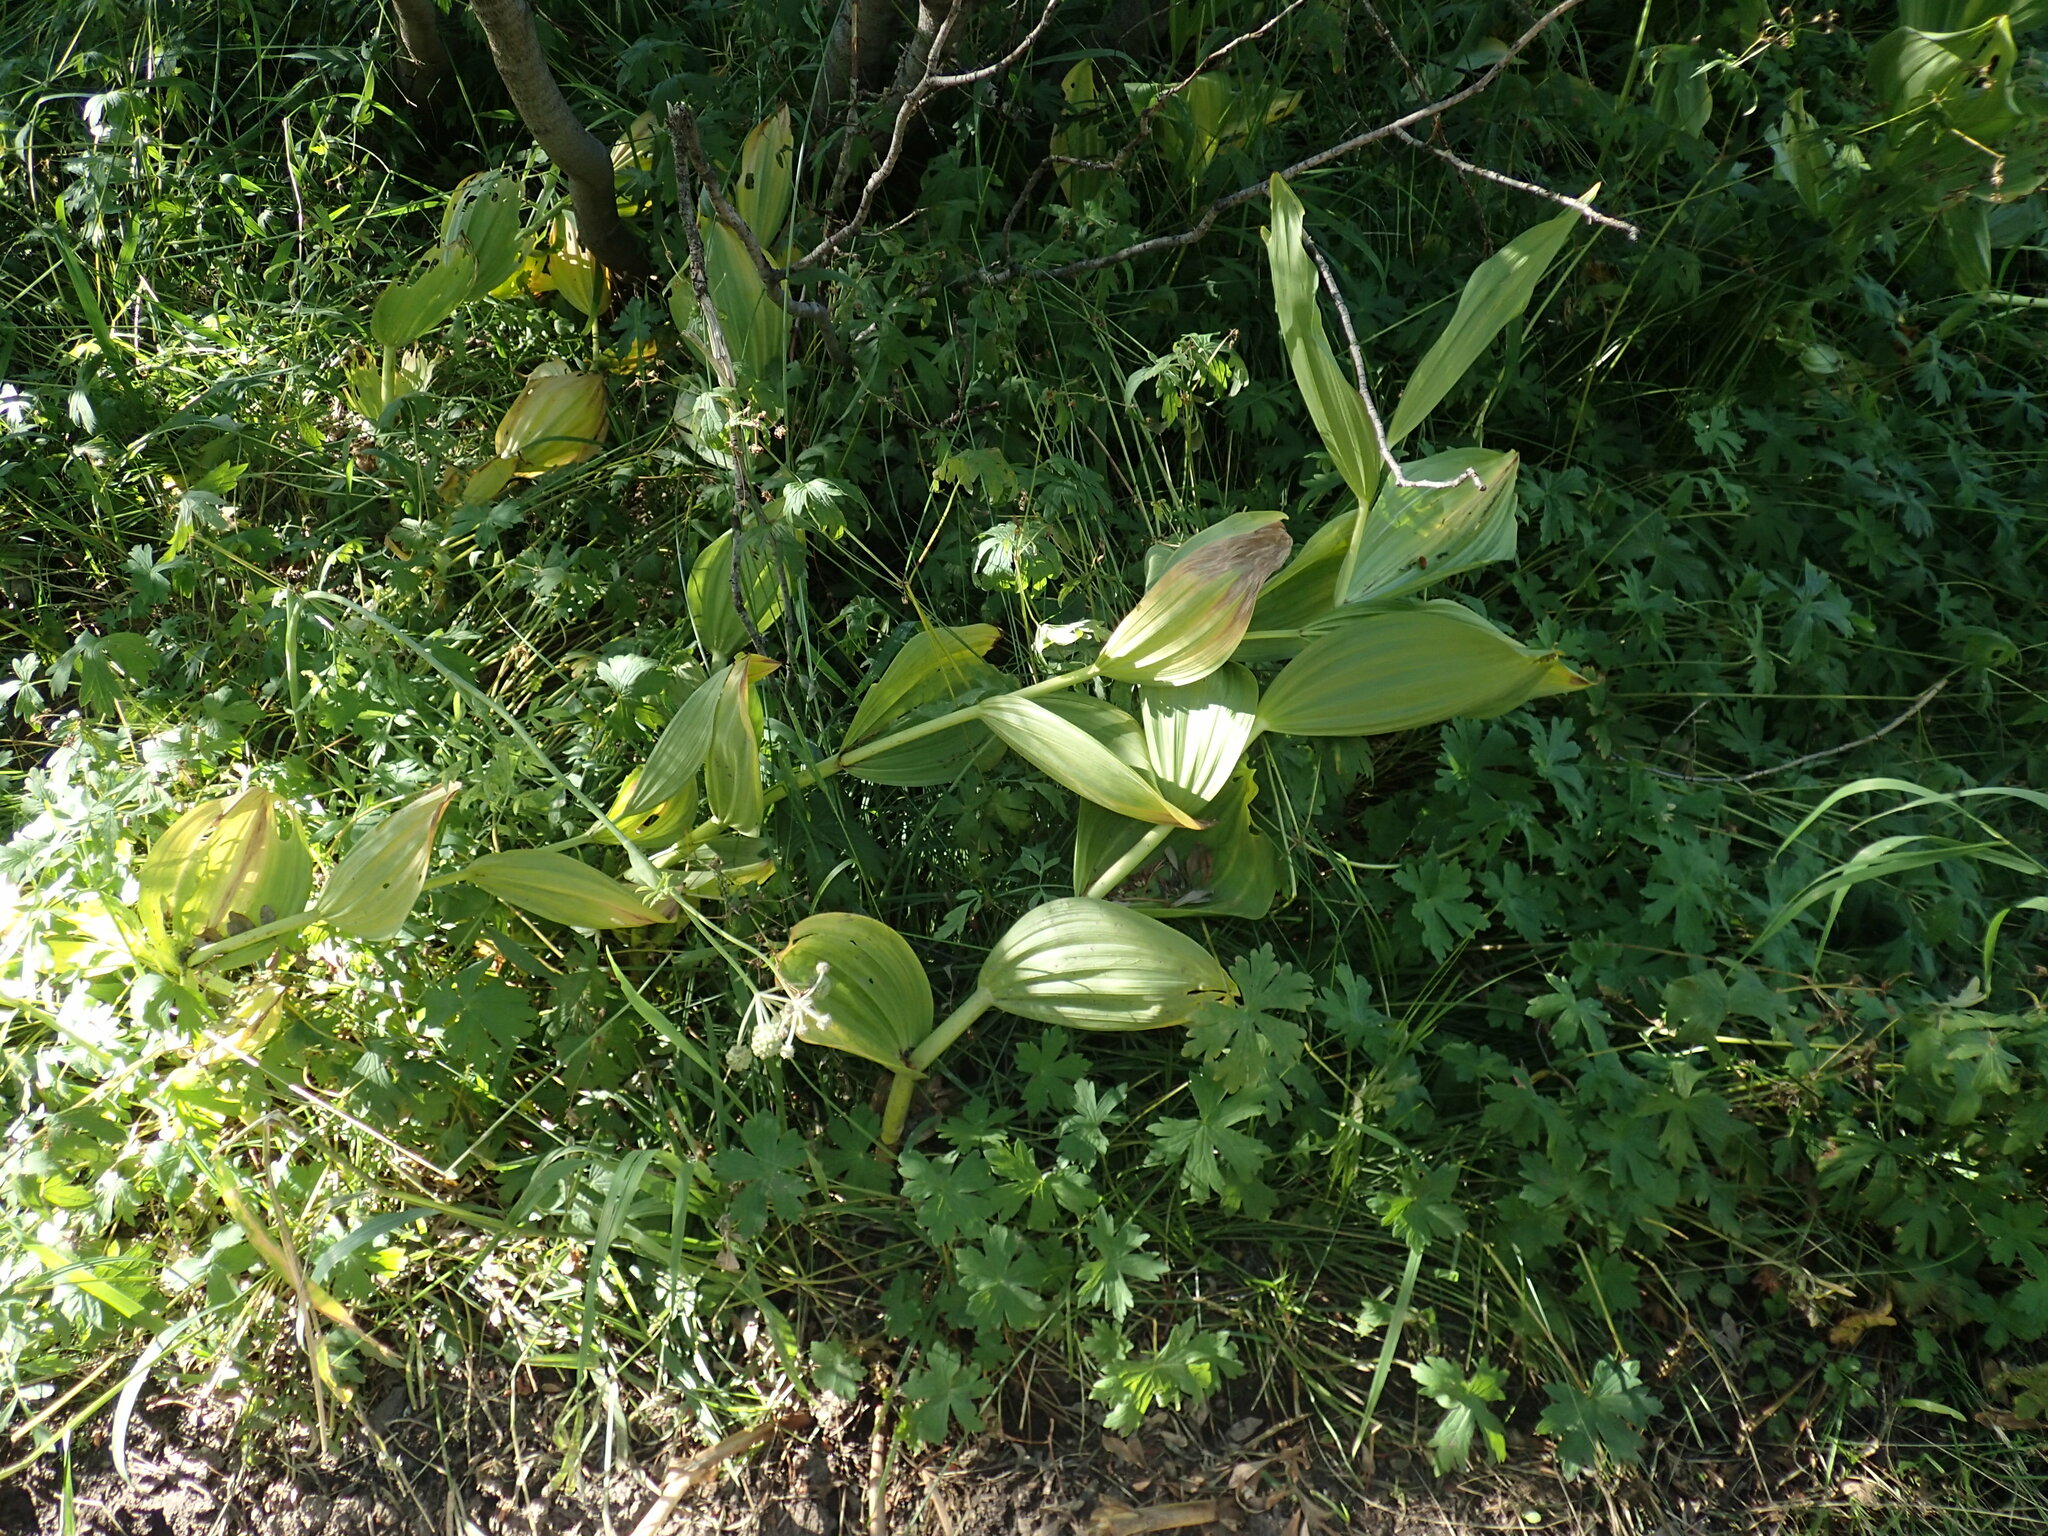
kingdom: Plantae
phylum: Tracheophyta
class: Liliopsida
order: Liliales
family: Melanthiaceae
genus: Veratrum
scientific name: Veratrum californicum
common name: California veratrum
